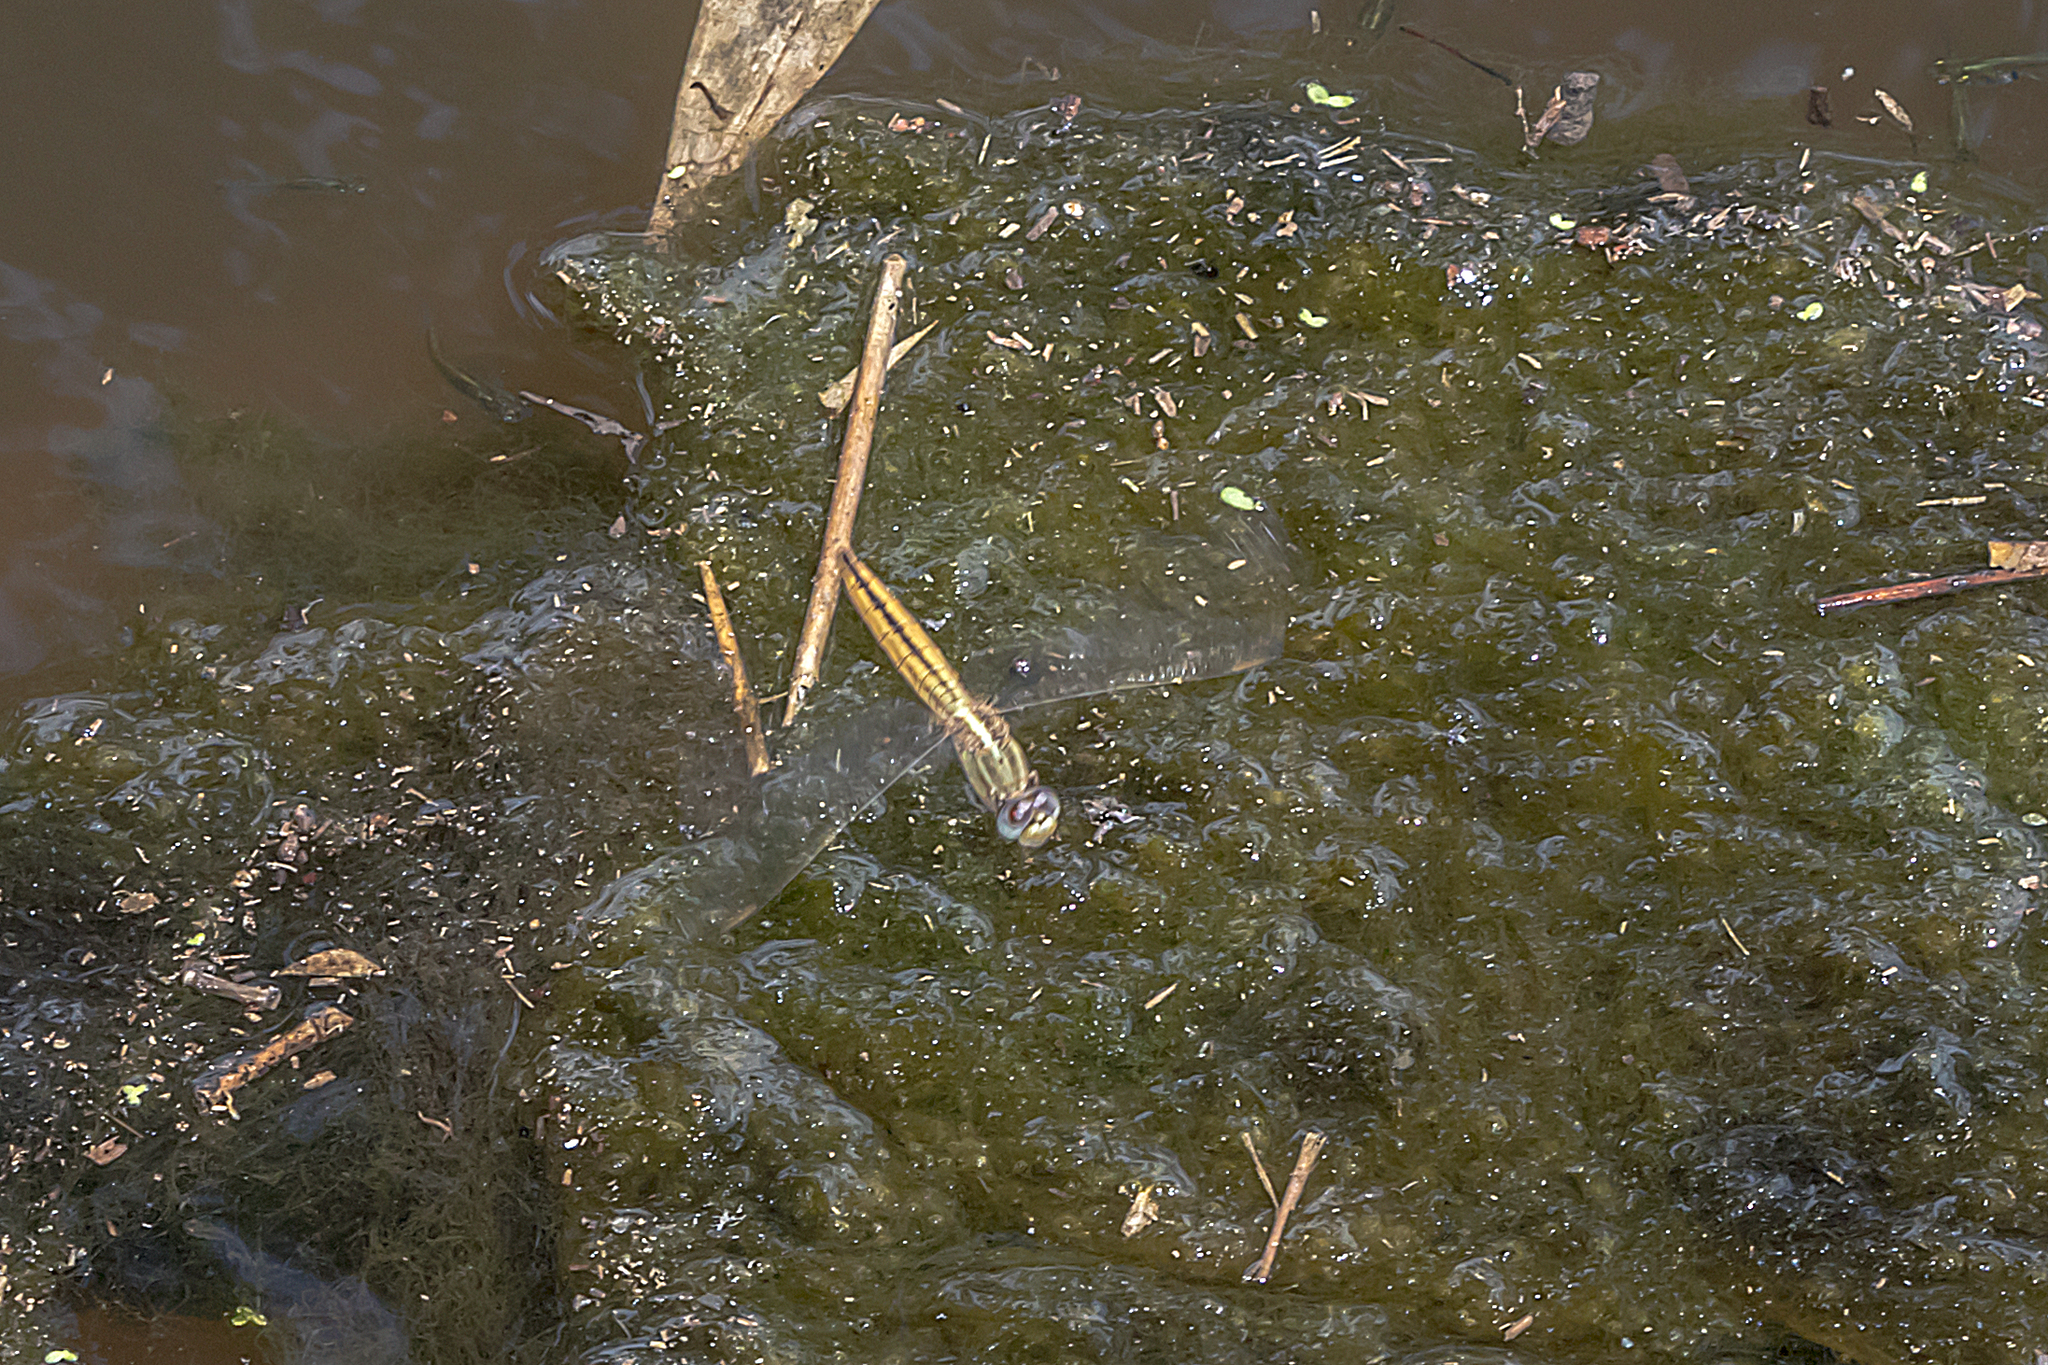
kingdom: Animalia
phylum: Arthropoda
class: Insecta
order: Odonata
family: Libellulidae
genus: Crocothemis
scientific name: Crocothemis nigrifrons
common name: Black-headed skimmer
